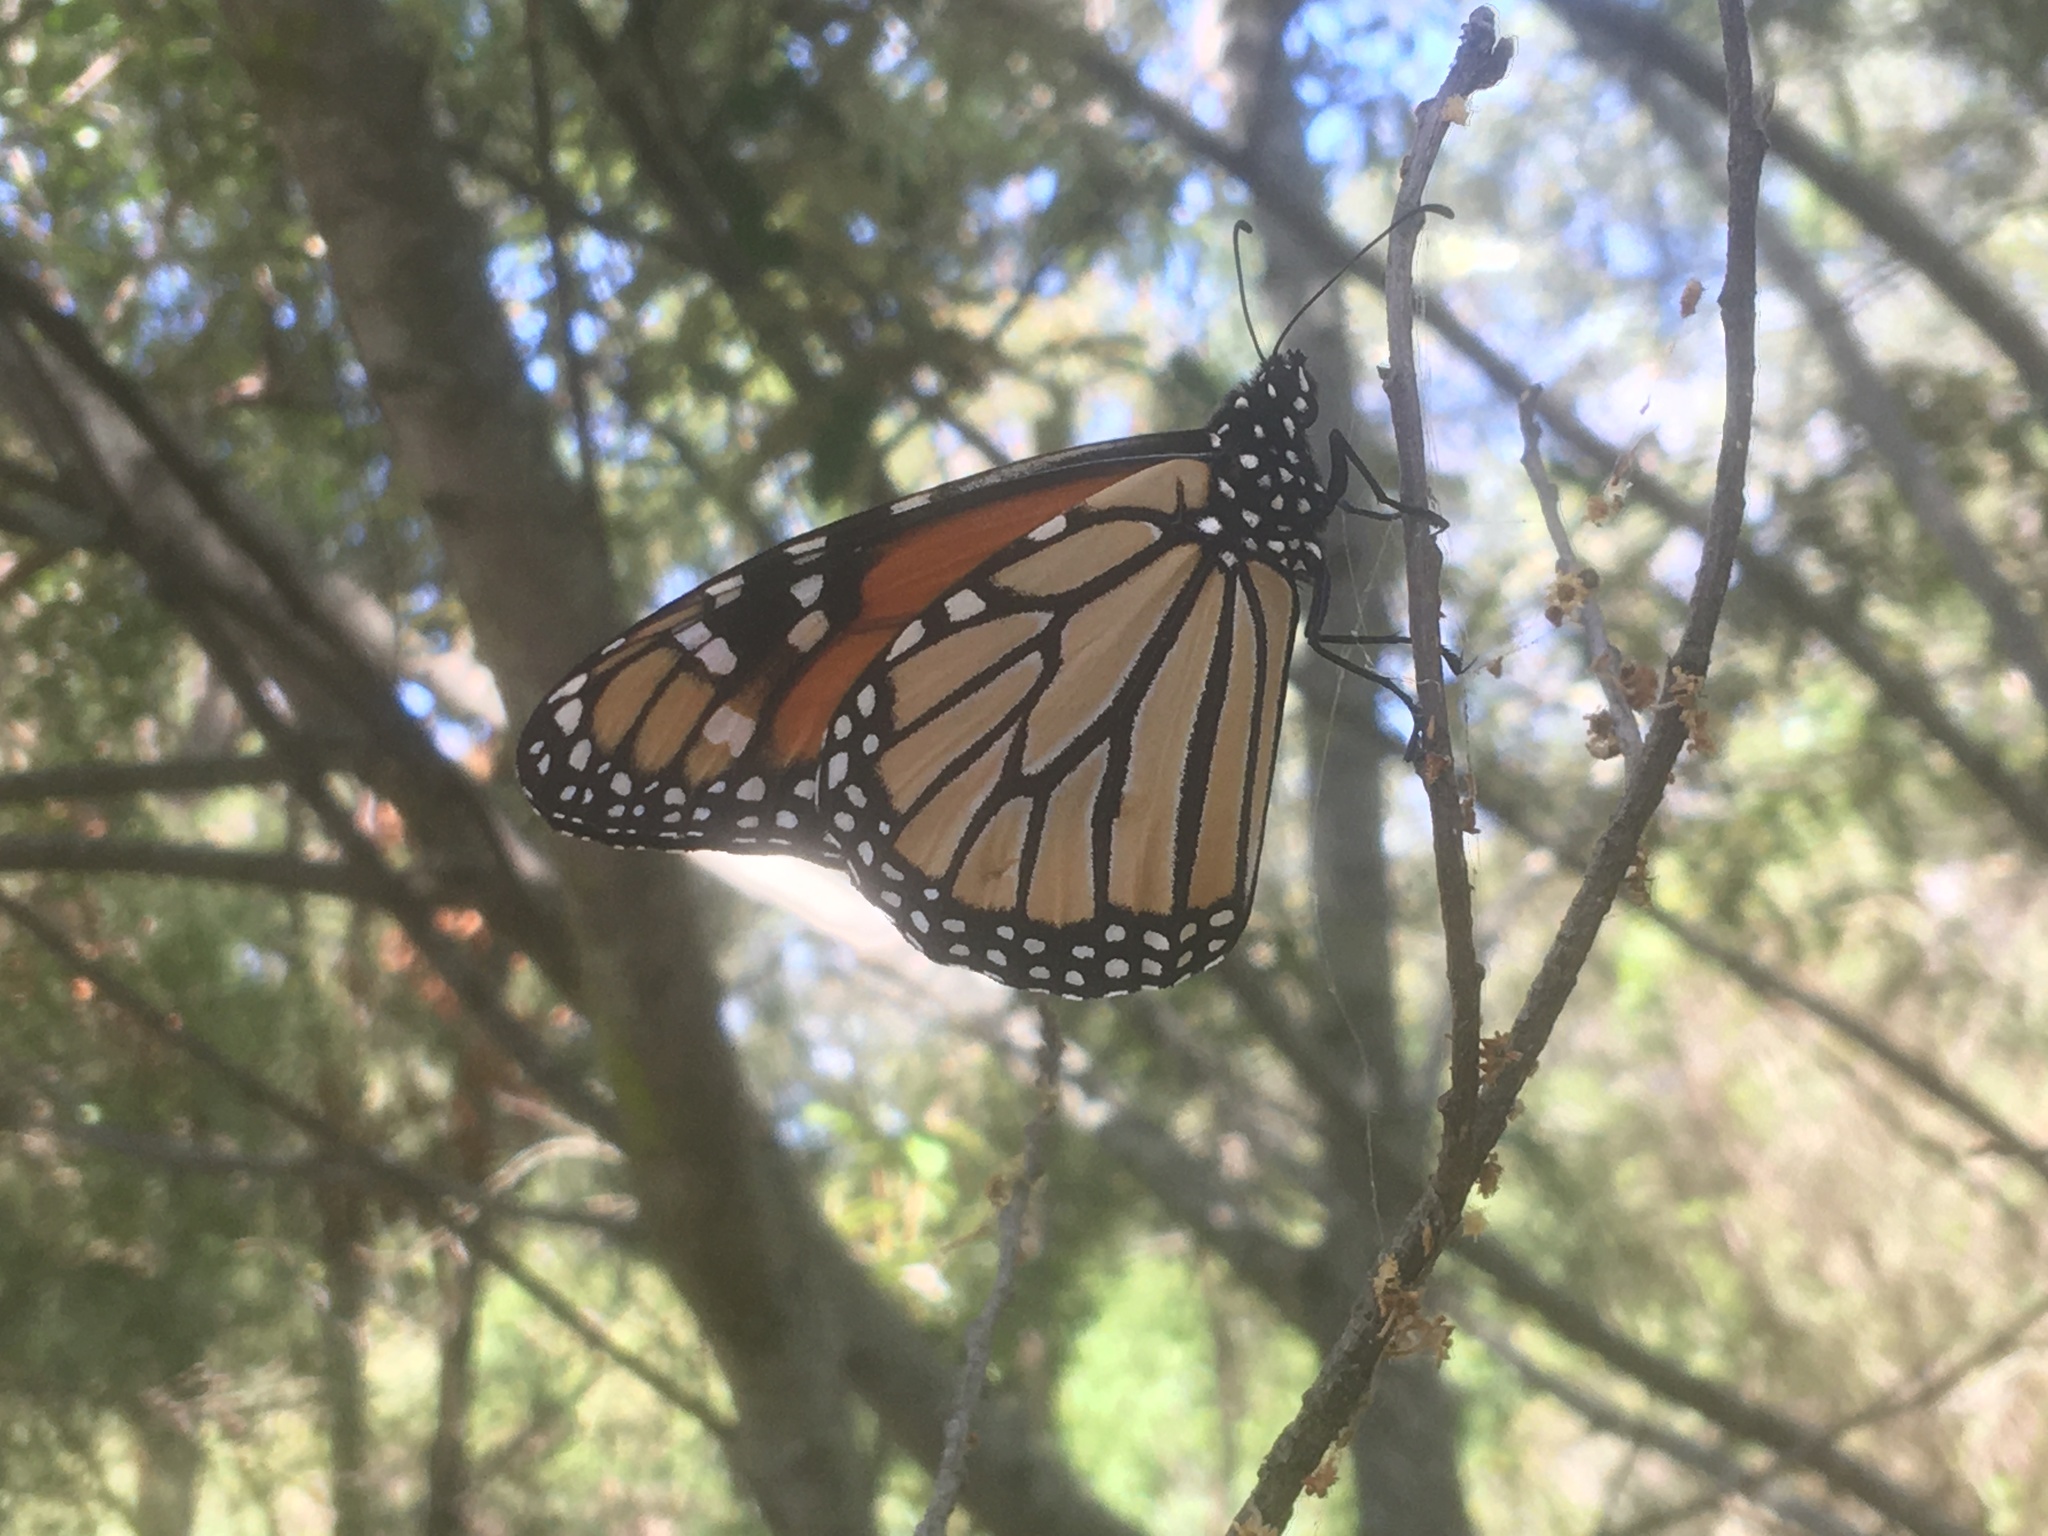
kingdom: Animalia
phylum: Arthropoda
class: Insecta
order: Lepidoptera
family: Nymphalidae
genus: Danaus
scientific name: Danaus plexippus
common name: Monarch
